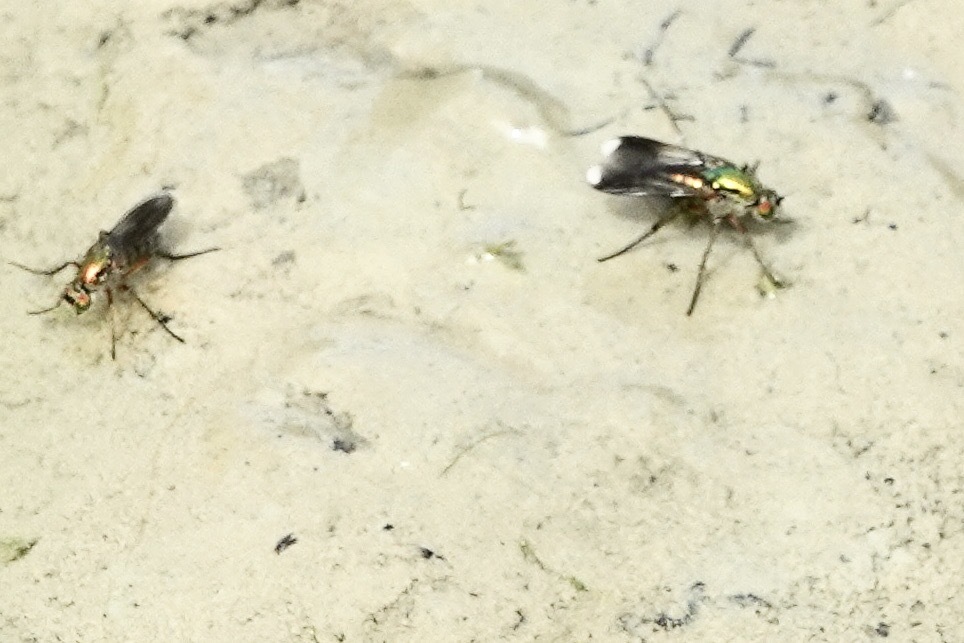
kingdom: Animalia
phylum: Arthropoda
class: Insecta
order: Diptera
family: Dolichopodidae
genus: Poecilobothrus
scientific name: Poecilobothrus nobilitatus
